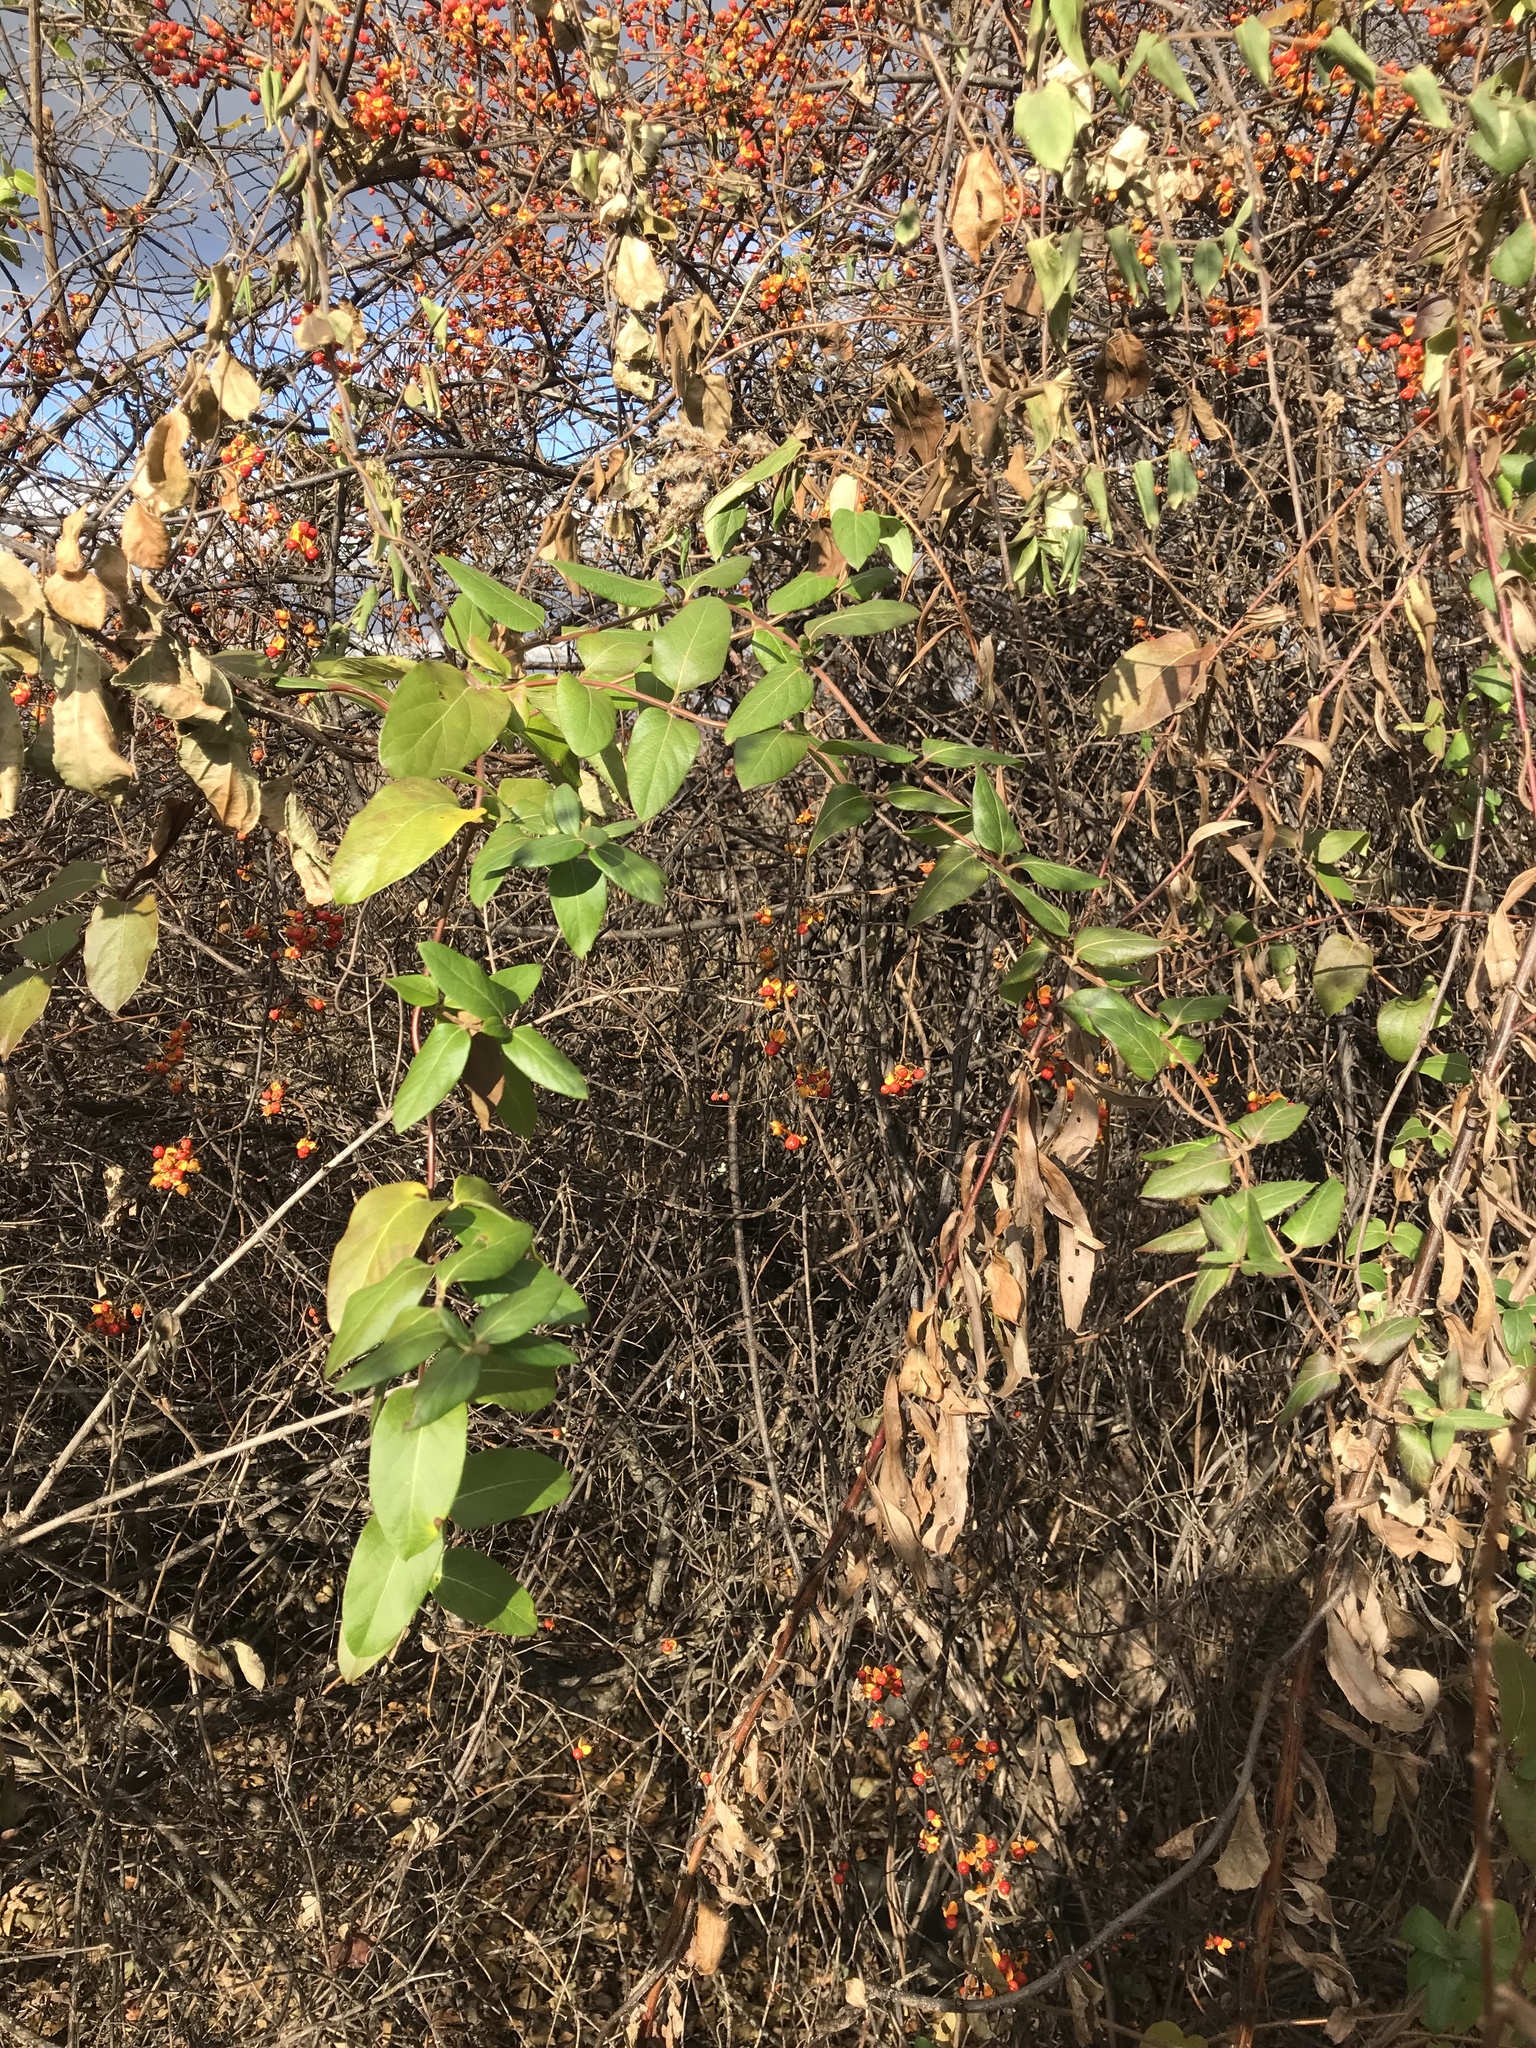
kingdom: Plantae
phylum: Tracheophyta
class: Magnoliopsida
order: Dipsacales
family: Caprifoliaceae
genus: Lonicera
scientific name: Lonicera japonica
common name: Japanese honeysuckle
